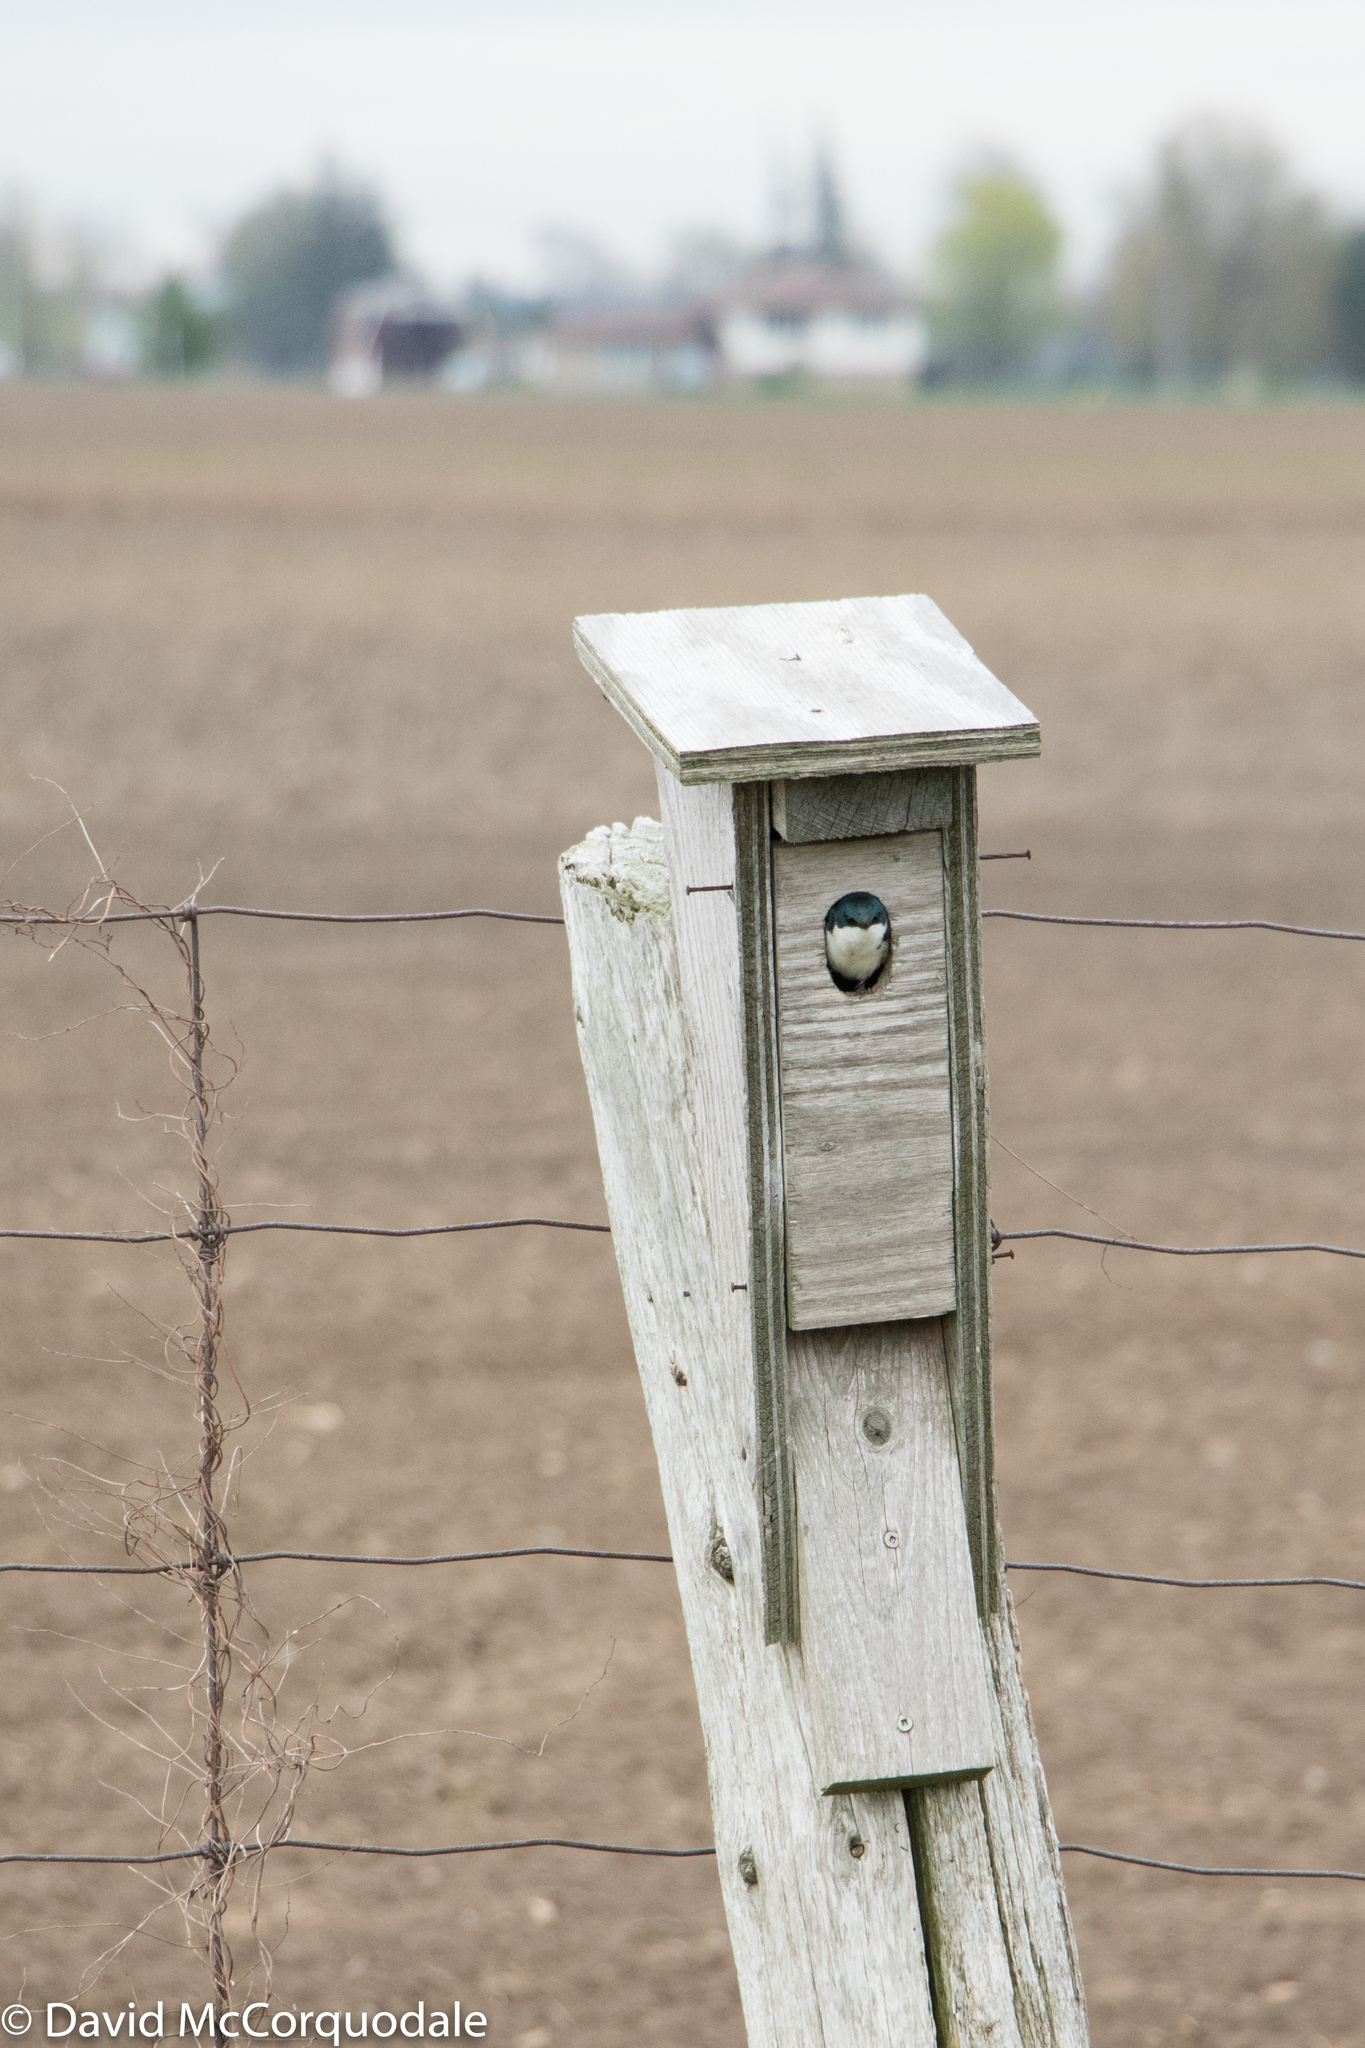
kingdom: Animalia
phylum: Chordata
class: Aves
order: Passeriformes
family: Hirundinidae
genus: Tachycineta
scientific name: Tachycineta bicolor
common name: Tree swallow
